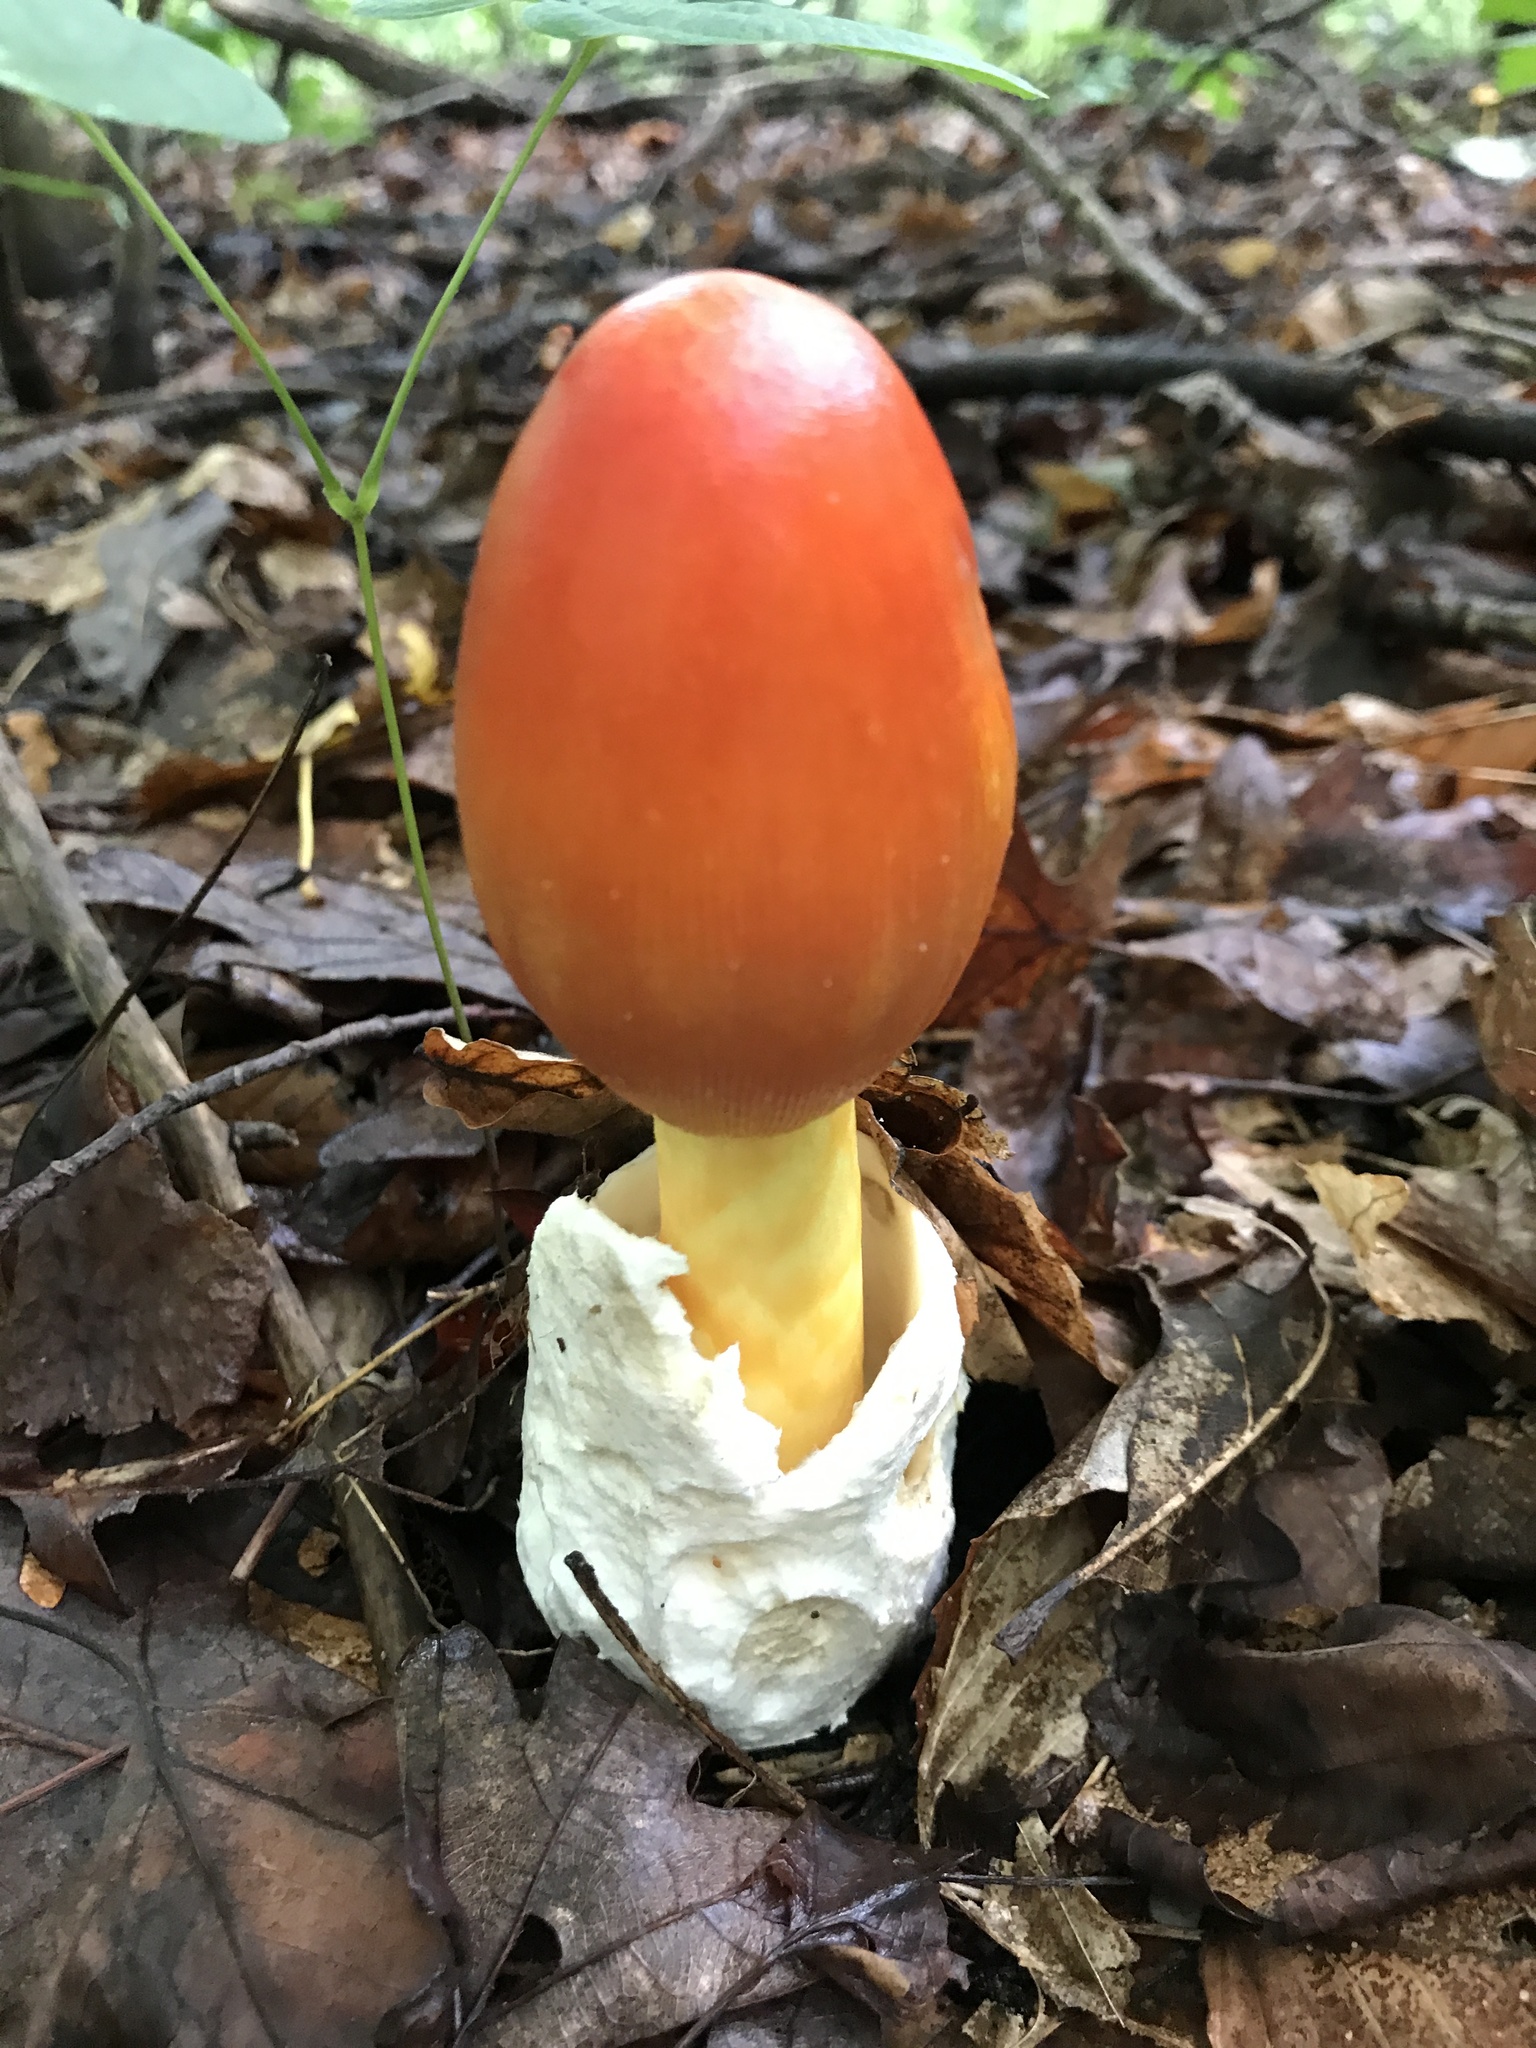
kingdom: Fungi
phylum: Basidiomycota
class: Agaricomycetes
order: Agaricales
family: Amanitaceae
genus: Amanita
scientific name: Amanita jacksonii
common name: Jackson's slender caesar
